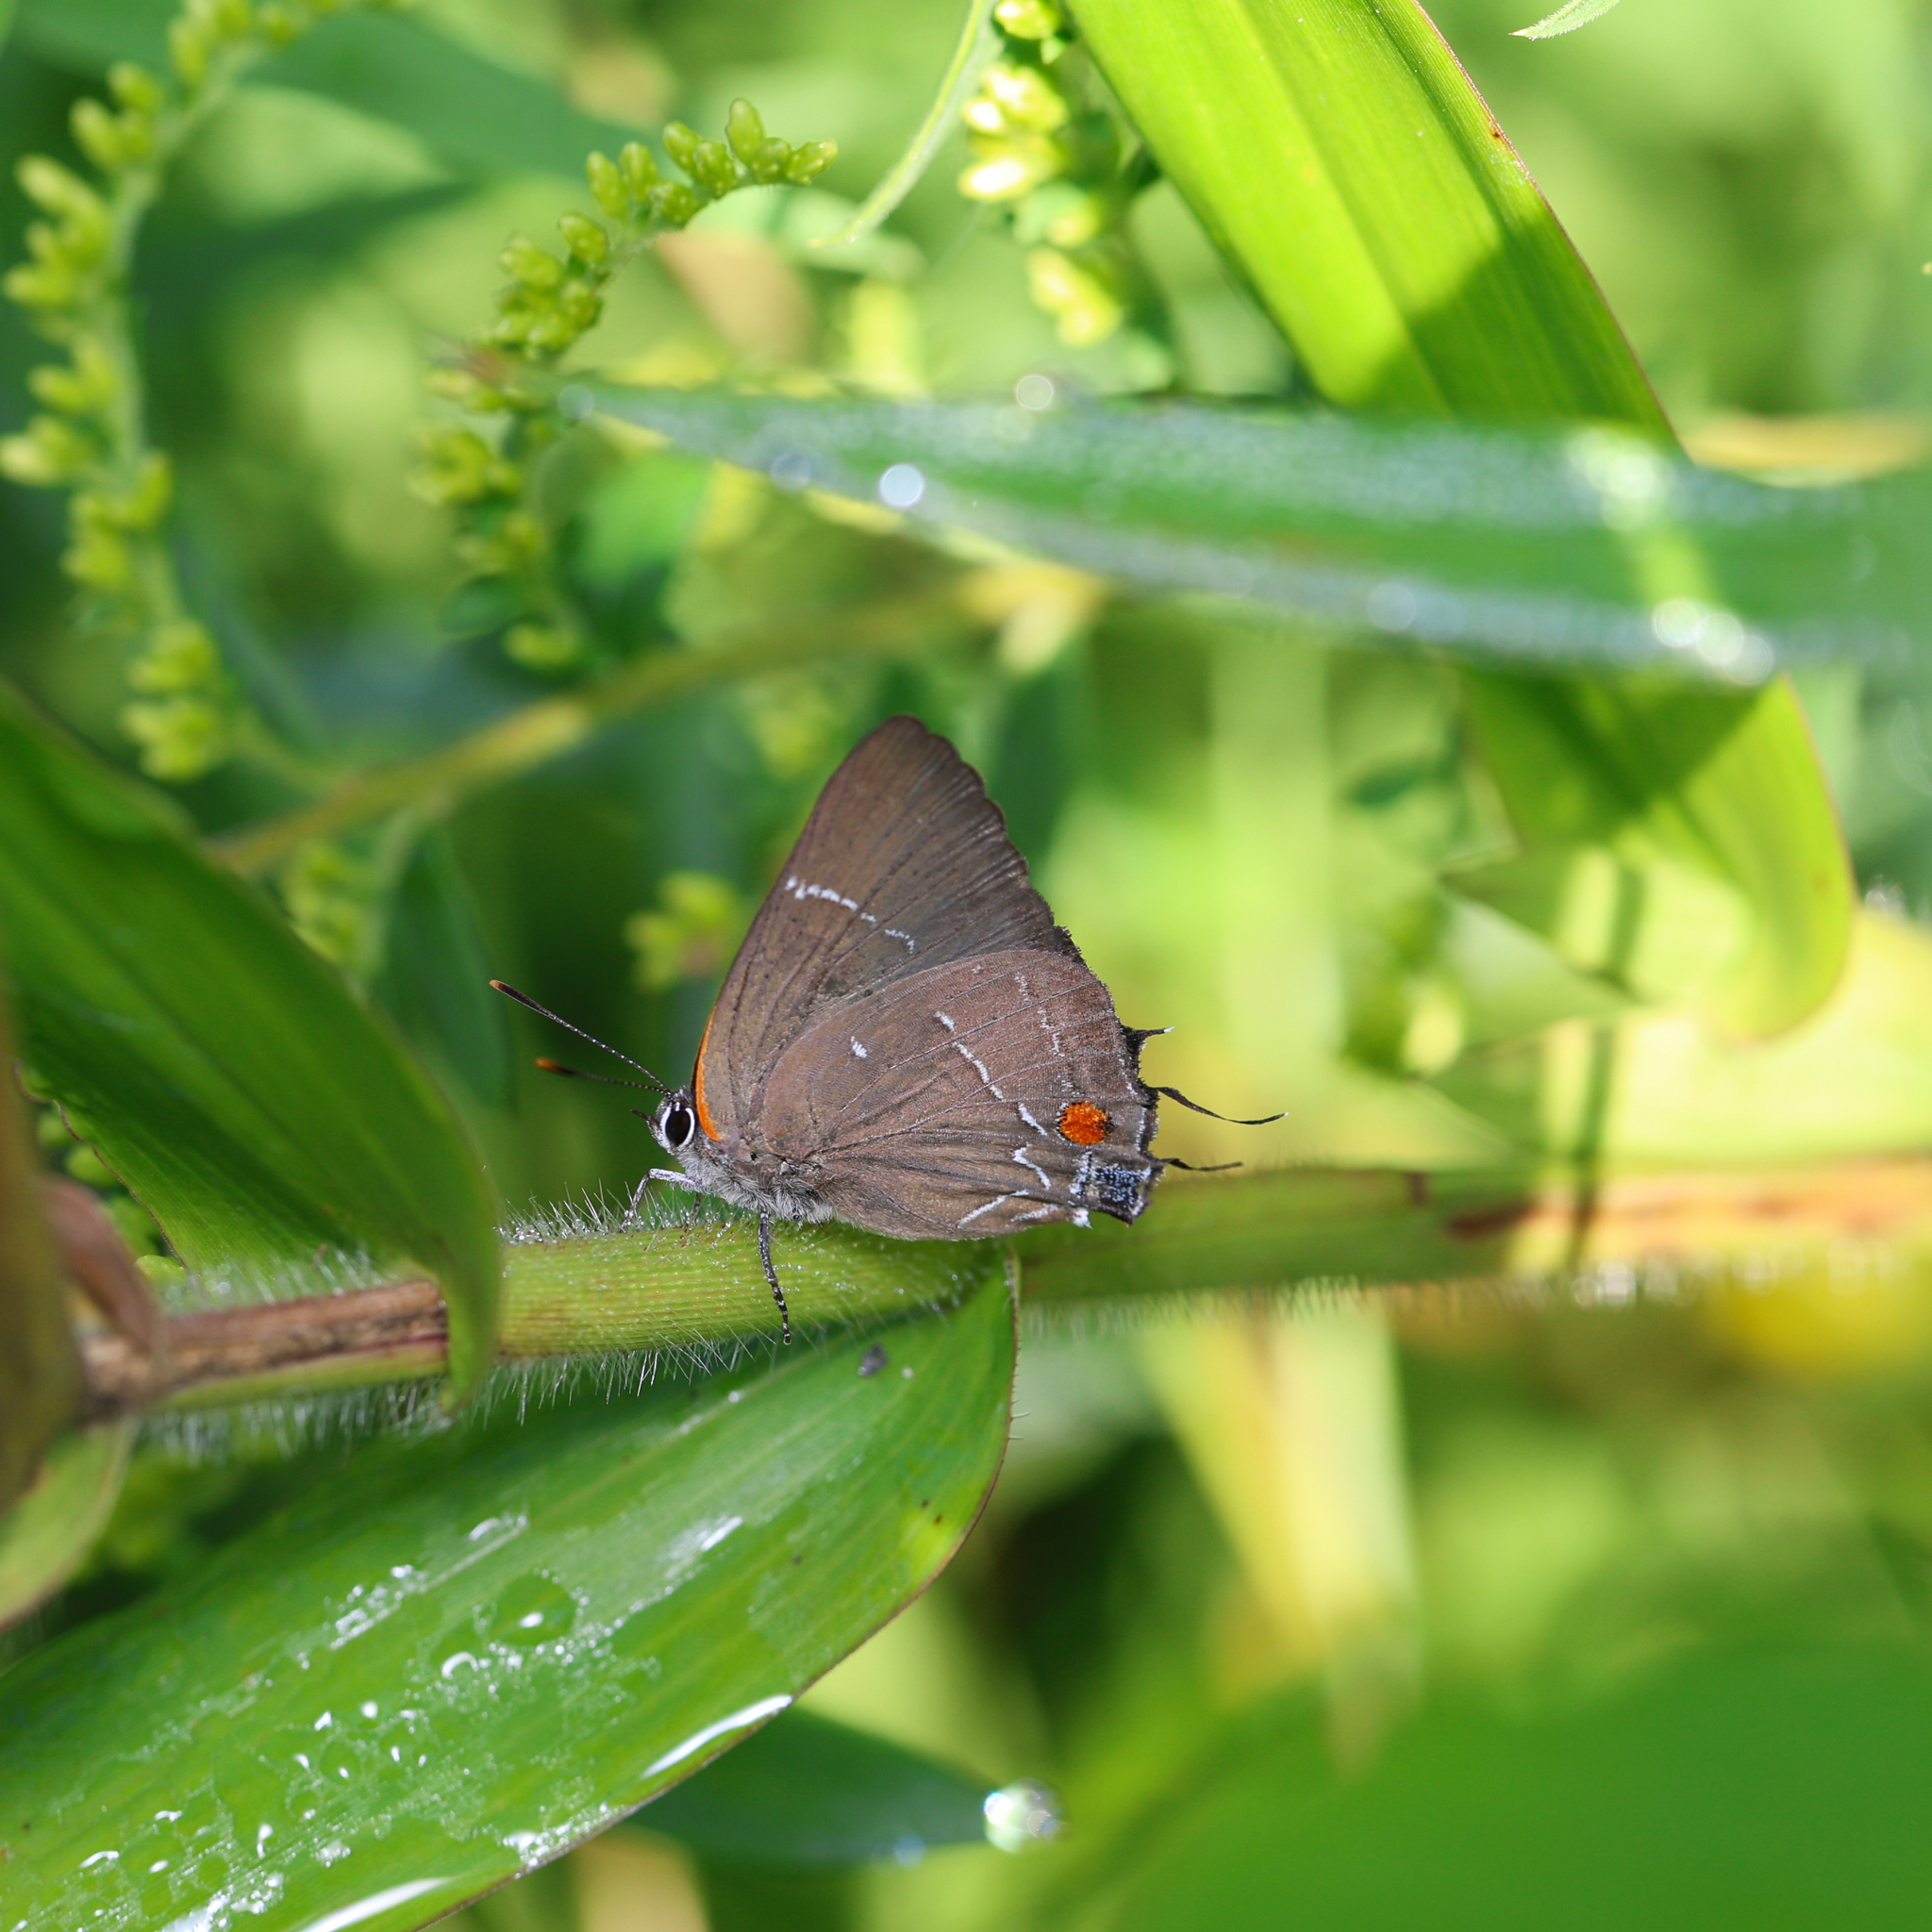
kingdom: Animalia
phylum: Arthropoda
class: Insecta
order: Lepidoptera
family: Lycaenidae
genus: Parrhasius
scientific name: Parrhasius m-album
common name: White m hairstreak
